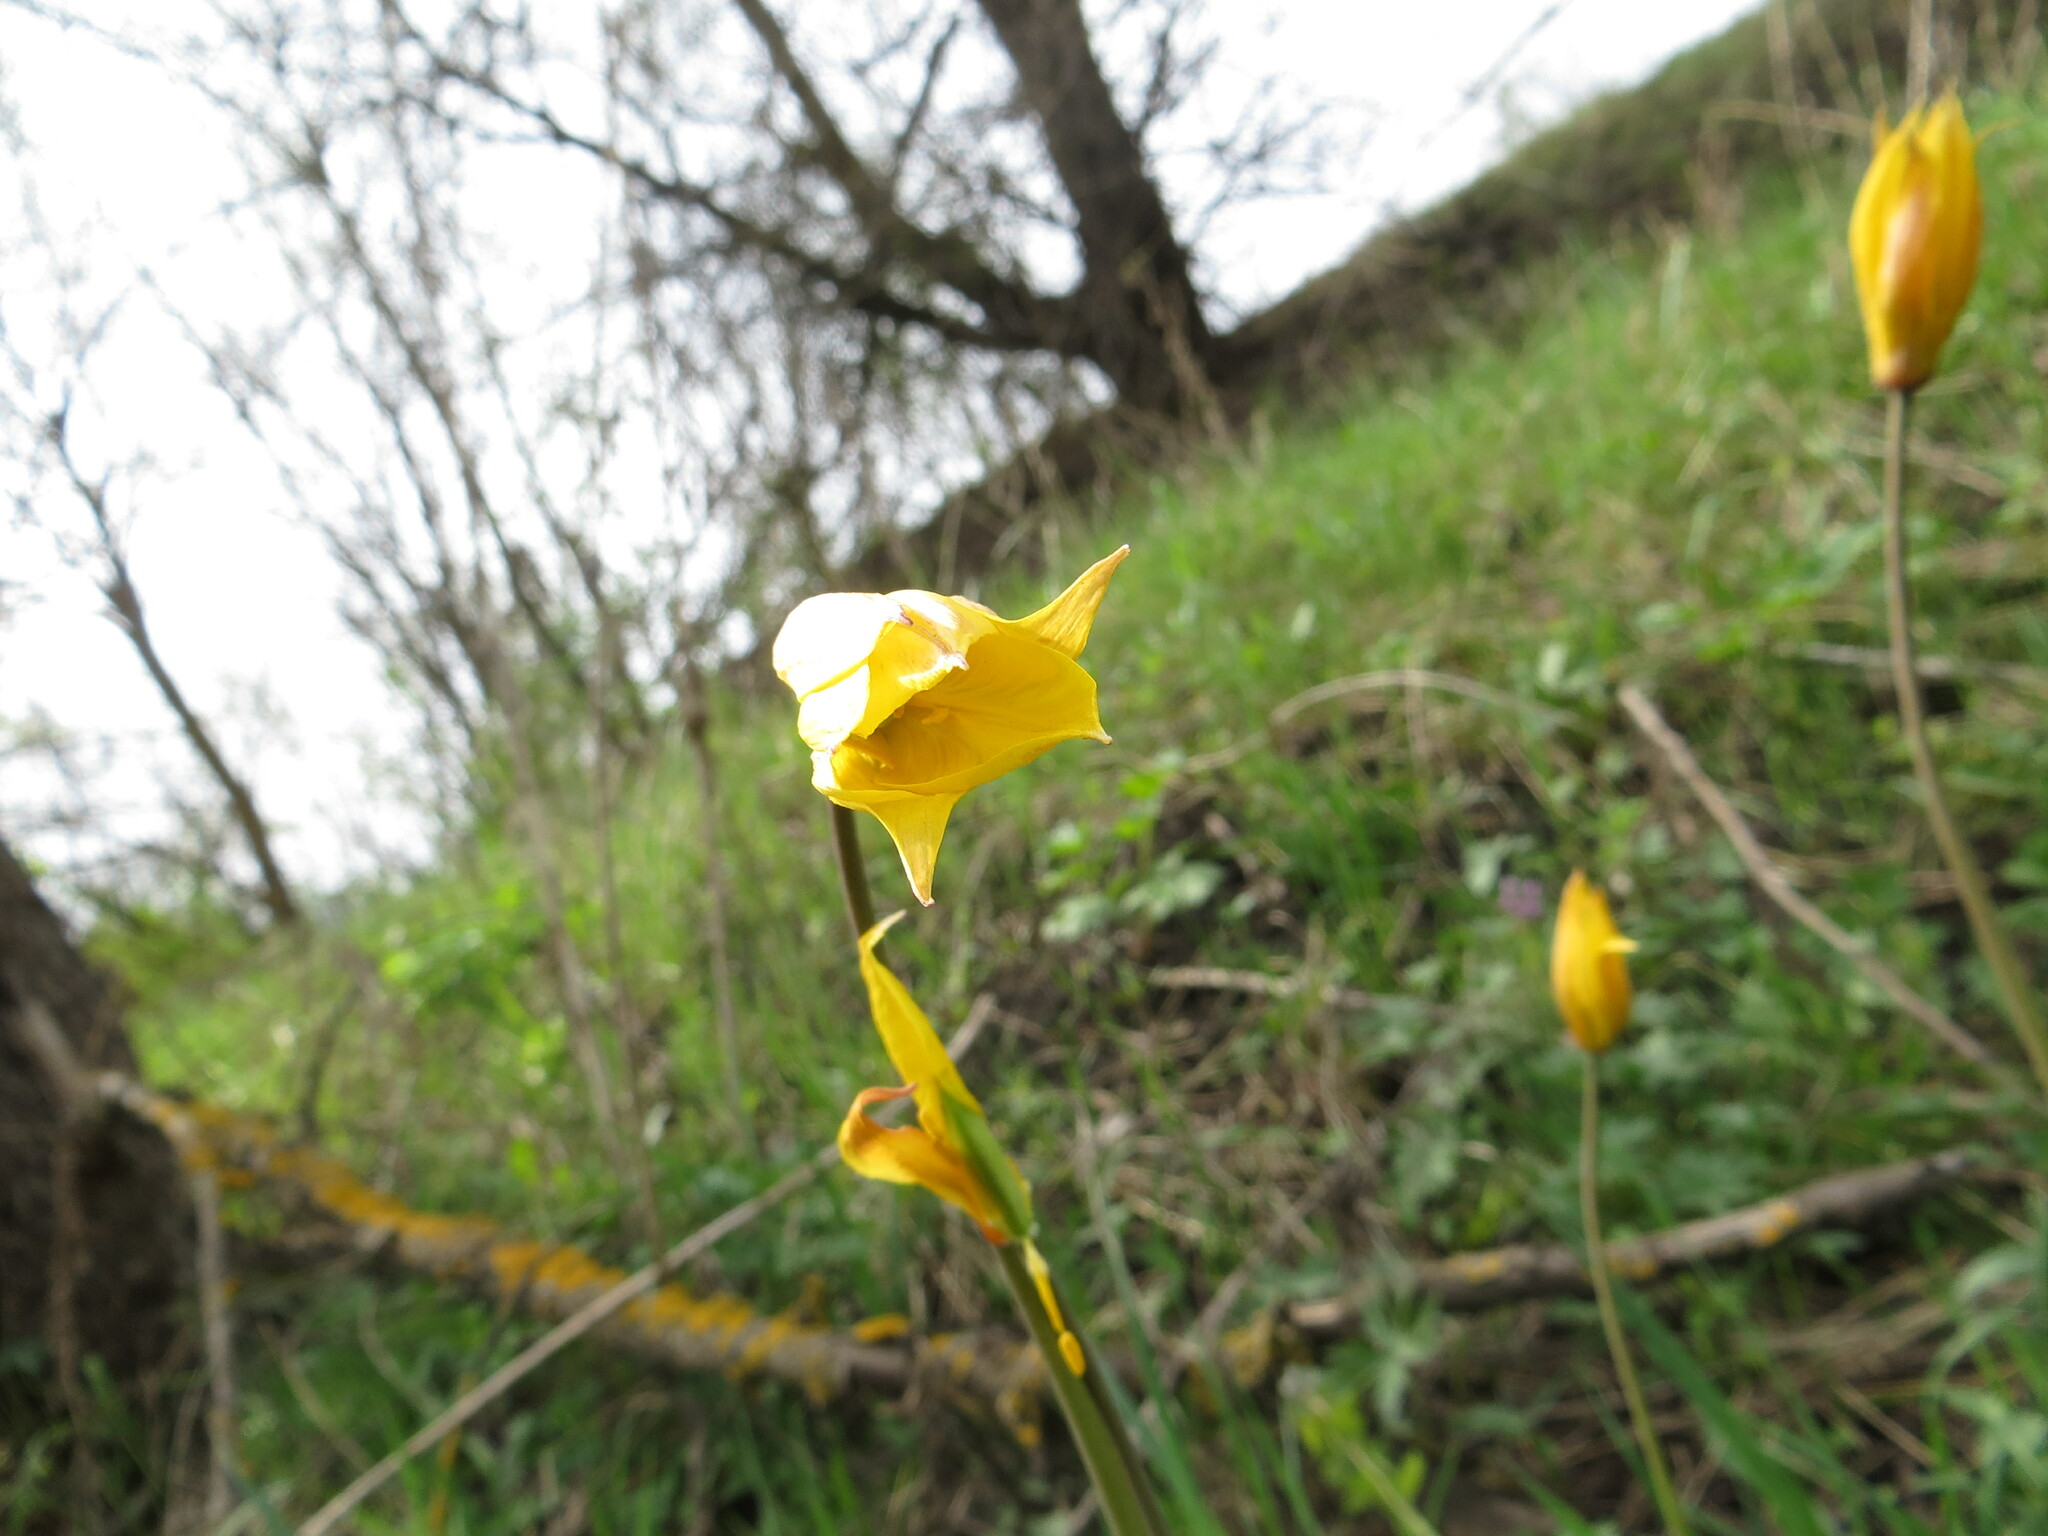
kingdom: Plantae
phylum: Tracheophyta
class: Liliopsida
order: Liliales
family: Liliaceae
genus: Tulipa
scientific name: Tulipa sylvestris
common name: Wild tulip
